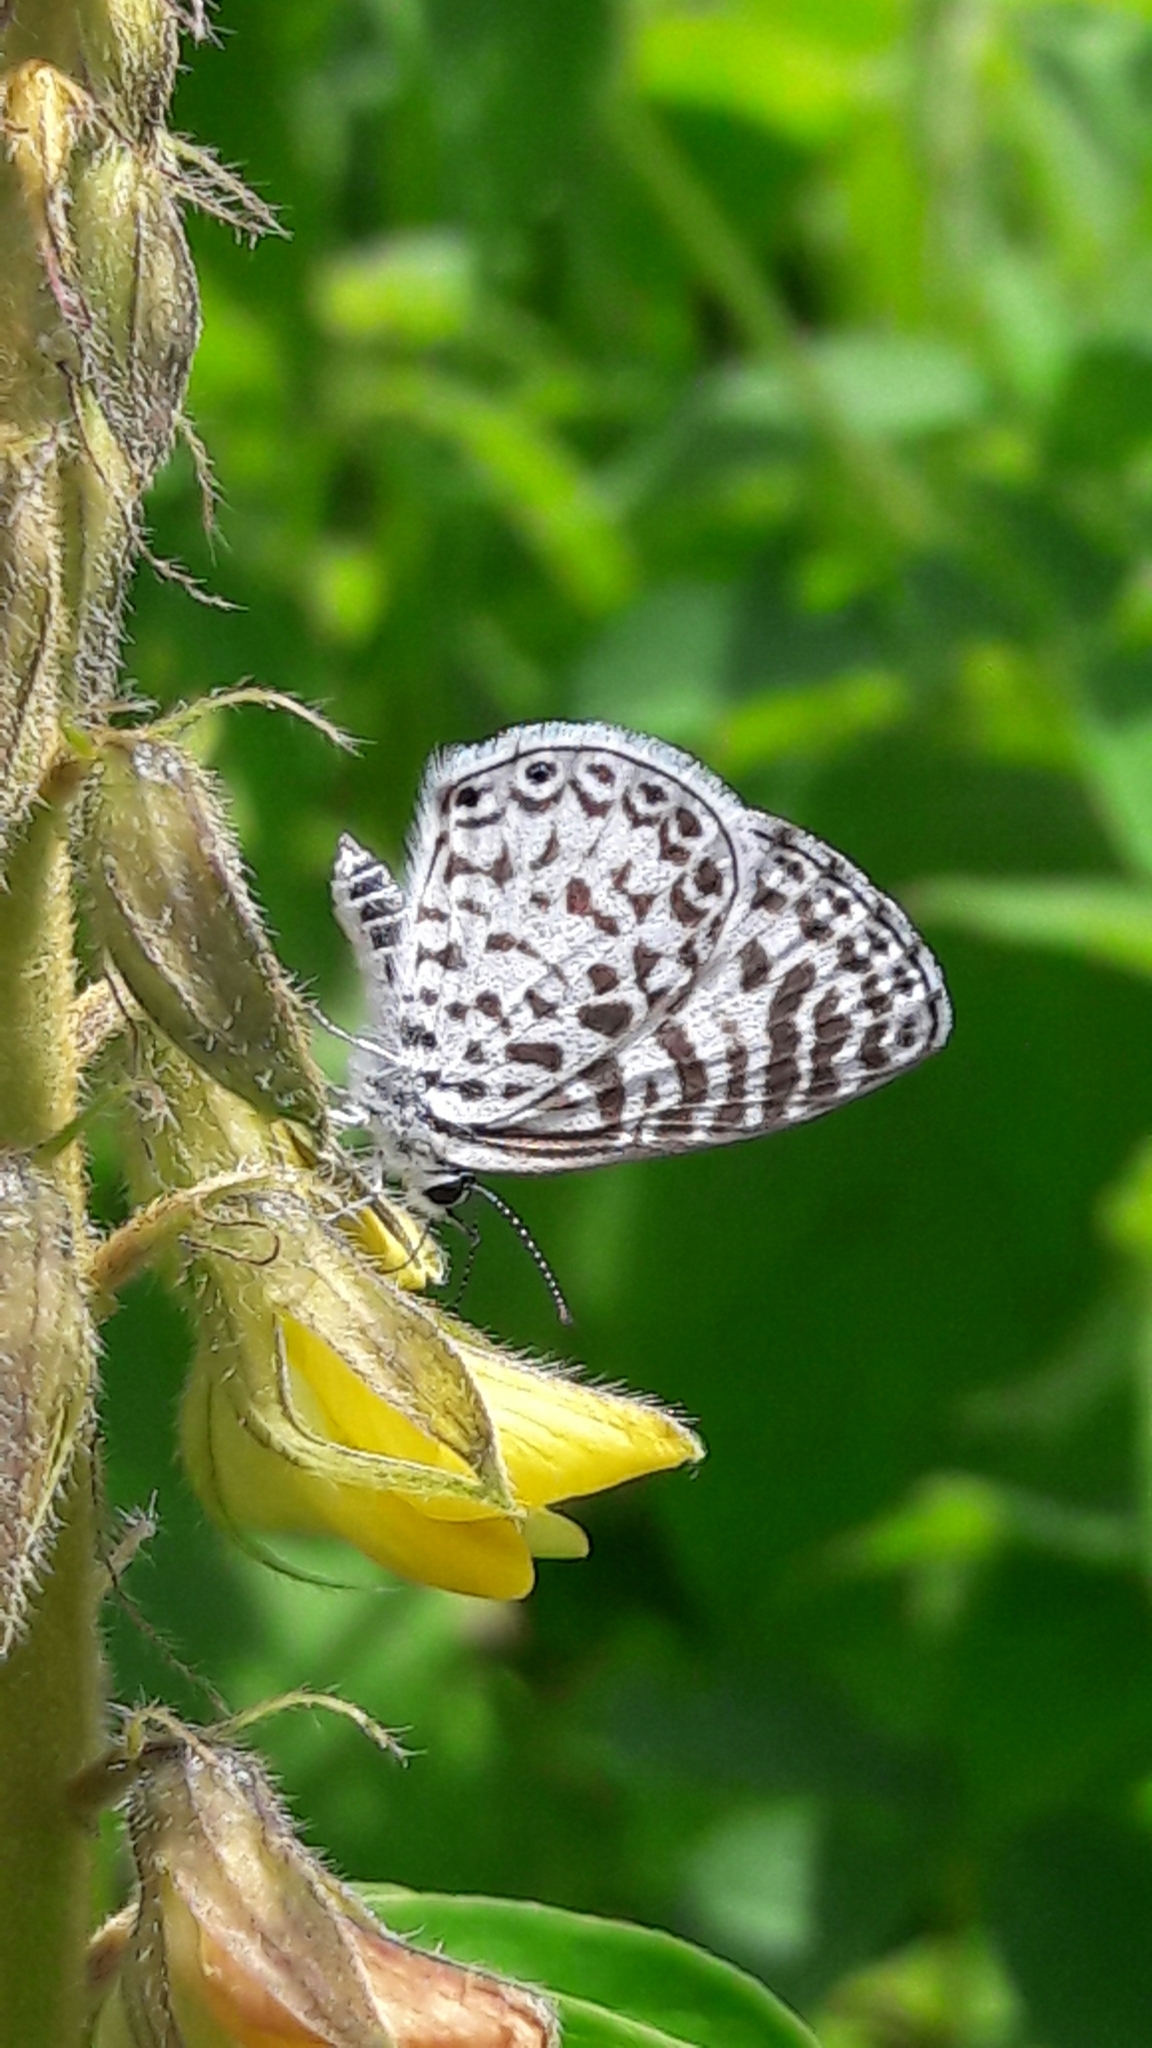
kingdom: Animalia
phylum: Arthropoda
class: Insecta
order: Lepidoptera
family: Lycaenidae
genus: Leptotes
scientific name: Leptotes cassius
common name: Cassius blue
